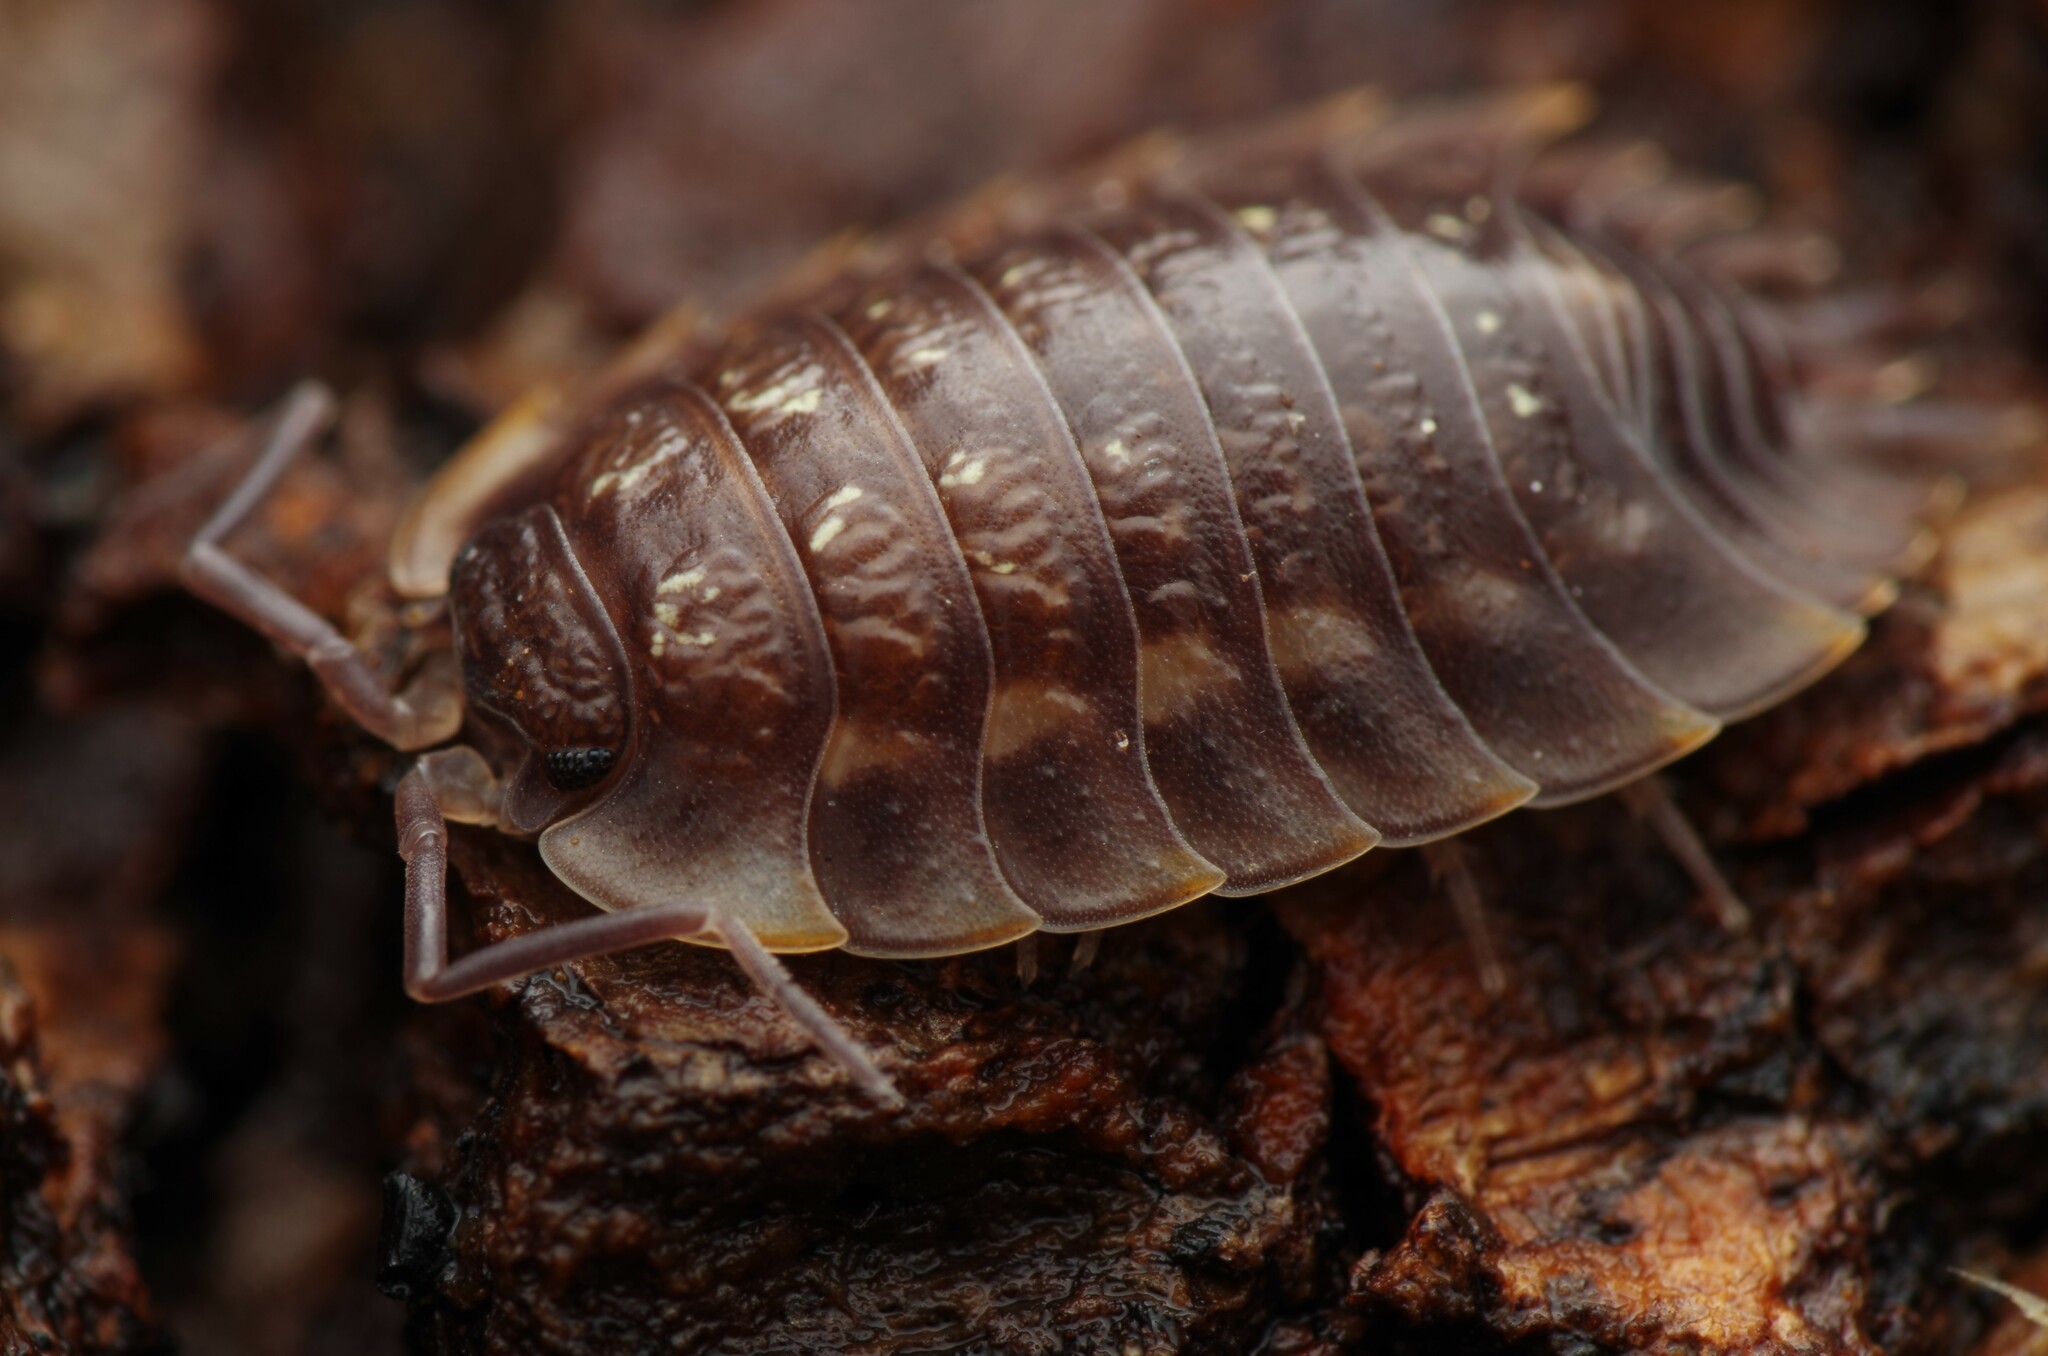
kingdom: Animalia
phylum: Arthropoda
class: Malacostraca
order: Isopoda
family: Oniscidae
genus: Oniscus
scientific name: Oniscus asellus
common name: Common shiny woodlouse
